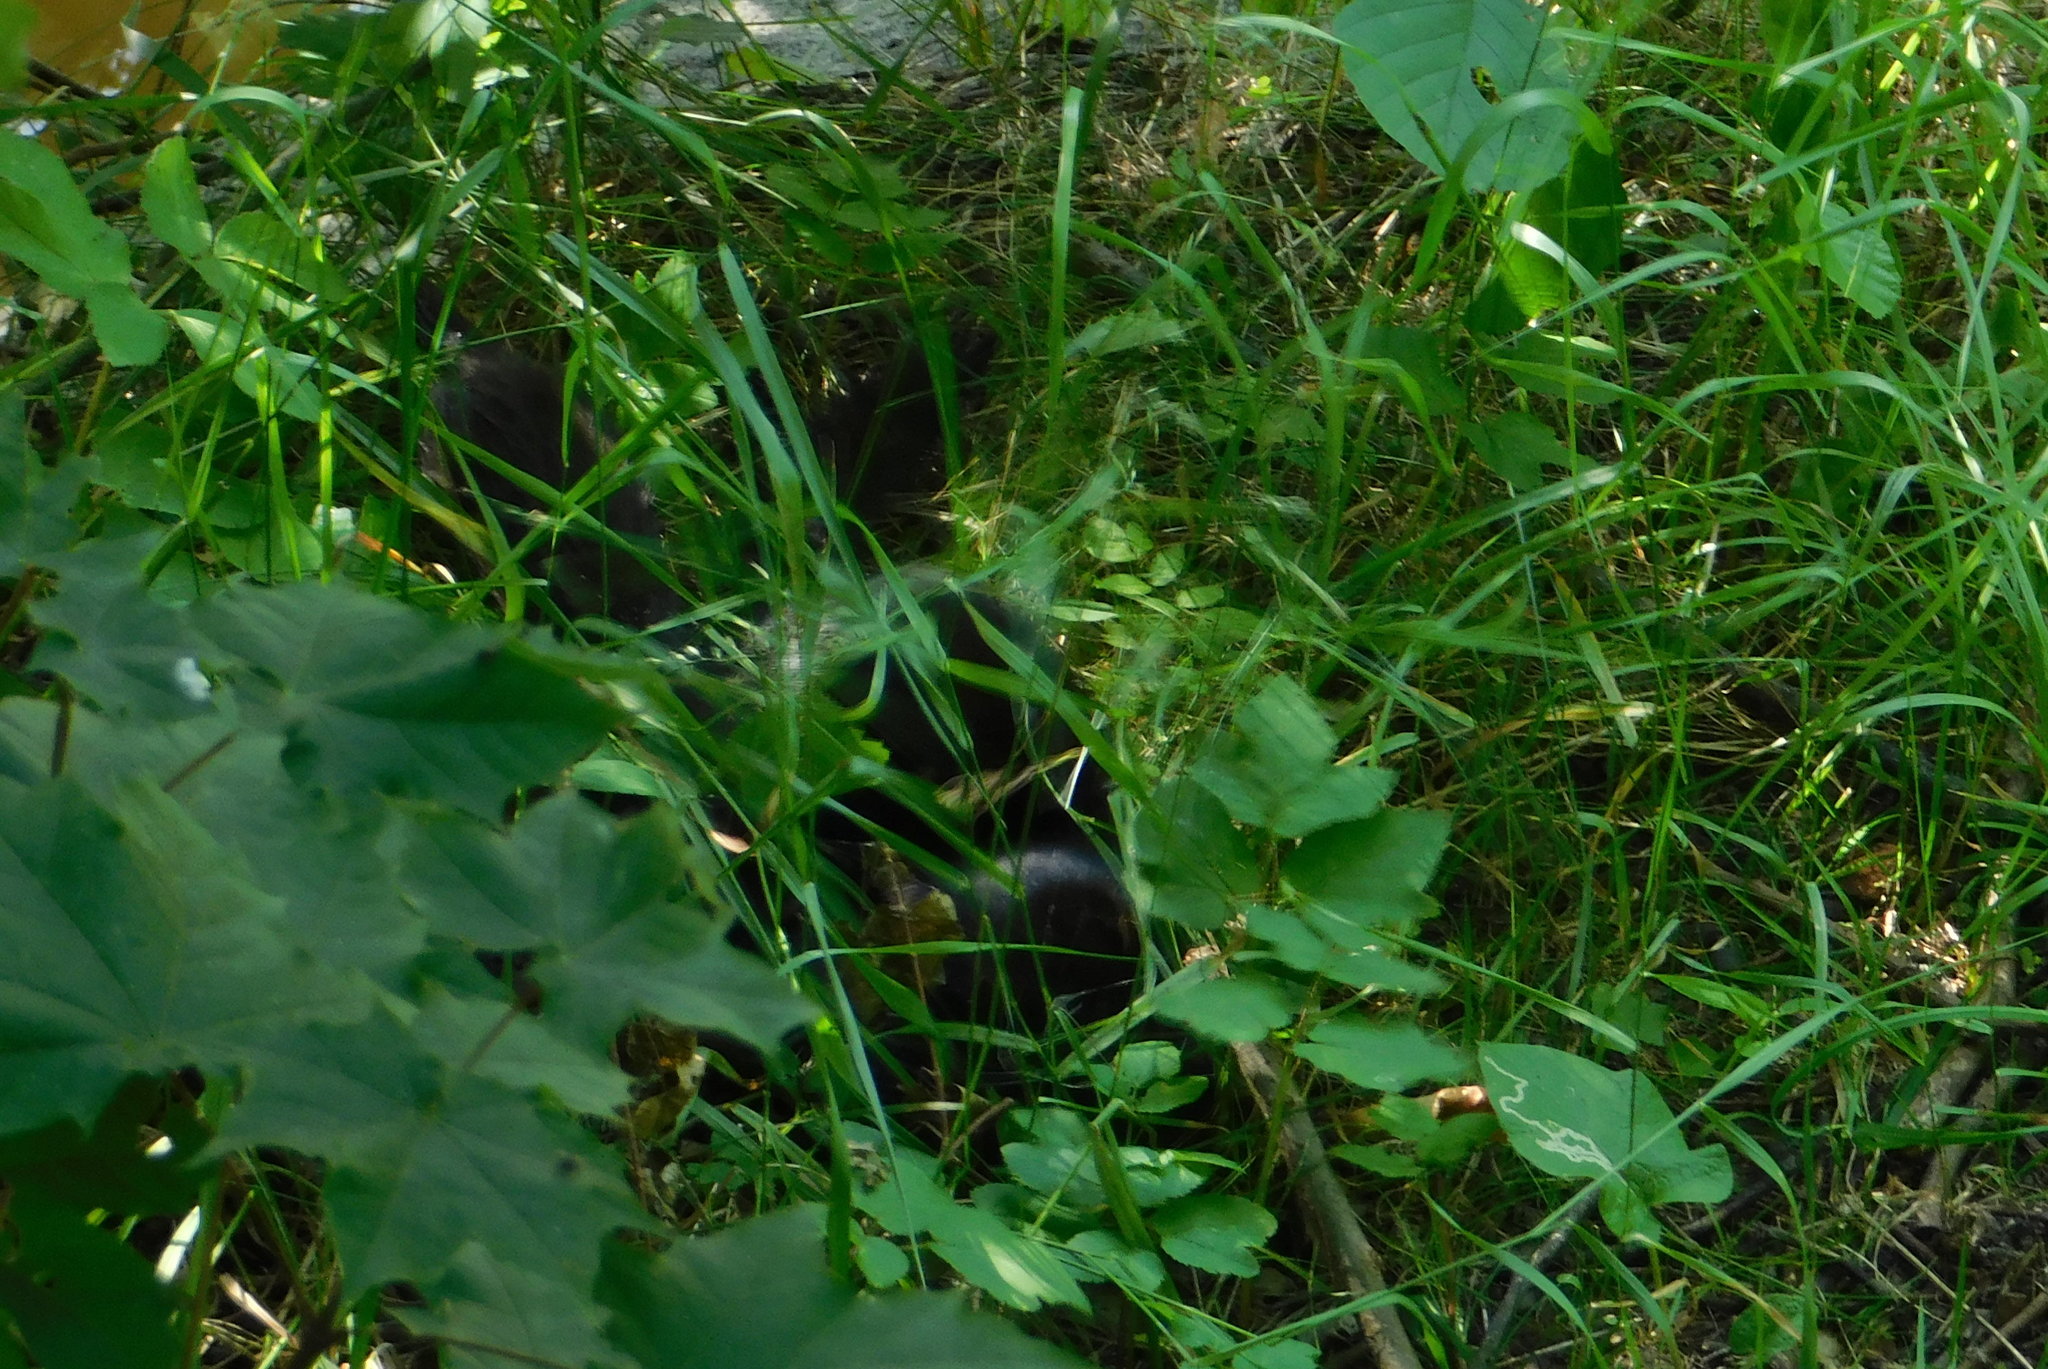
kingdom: Animalia
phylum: Chordata
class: Mammalia
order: Carnivora
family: Mustelidae
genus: Mustela
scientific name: Mustela
